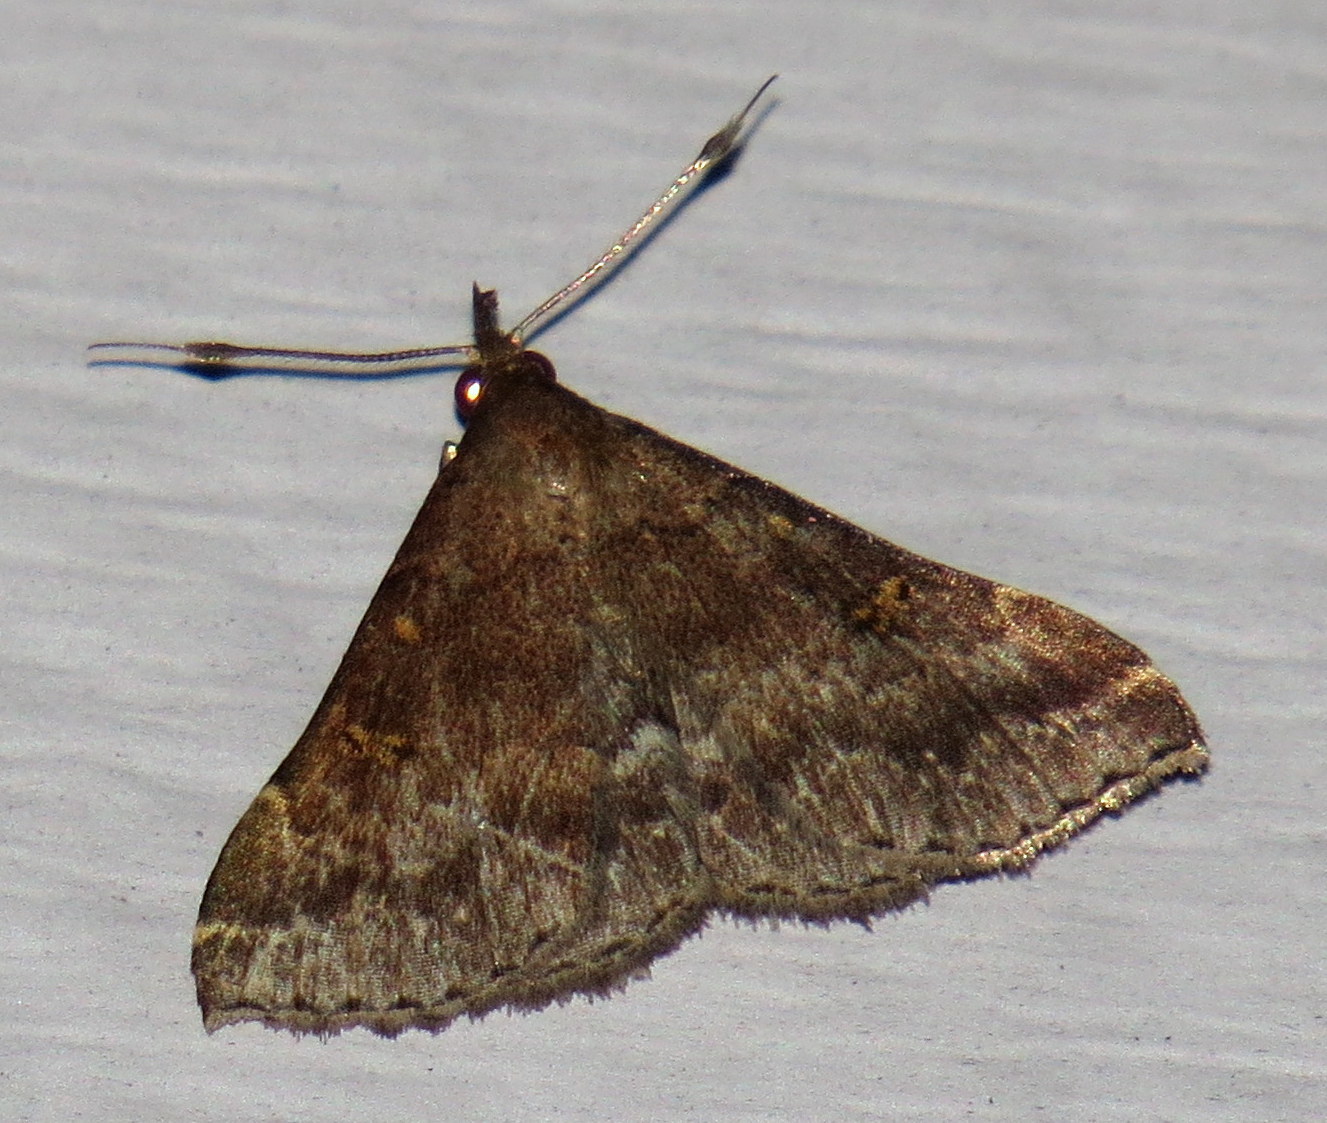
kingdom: Animalia
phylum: Arthropoda
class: Insecta
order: Lepidoptera
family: Erebidae
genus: Renia
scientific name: Renia factiosalis
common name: Sociable renia moth
